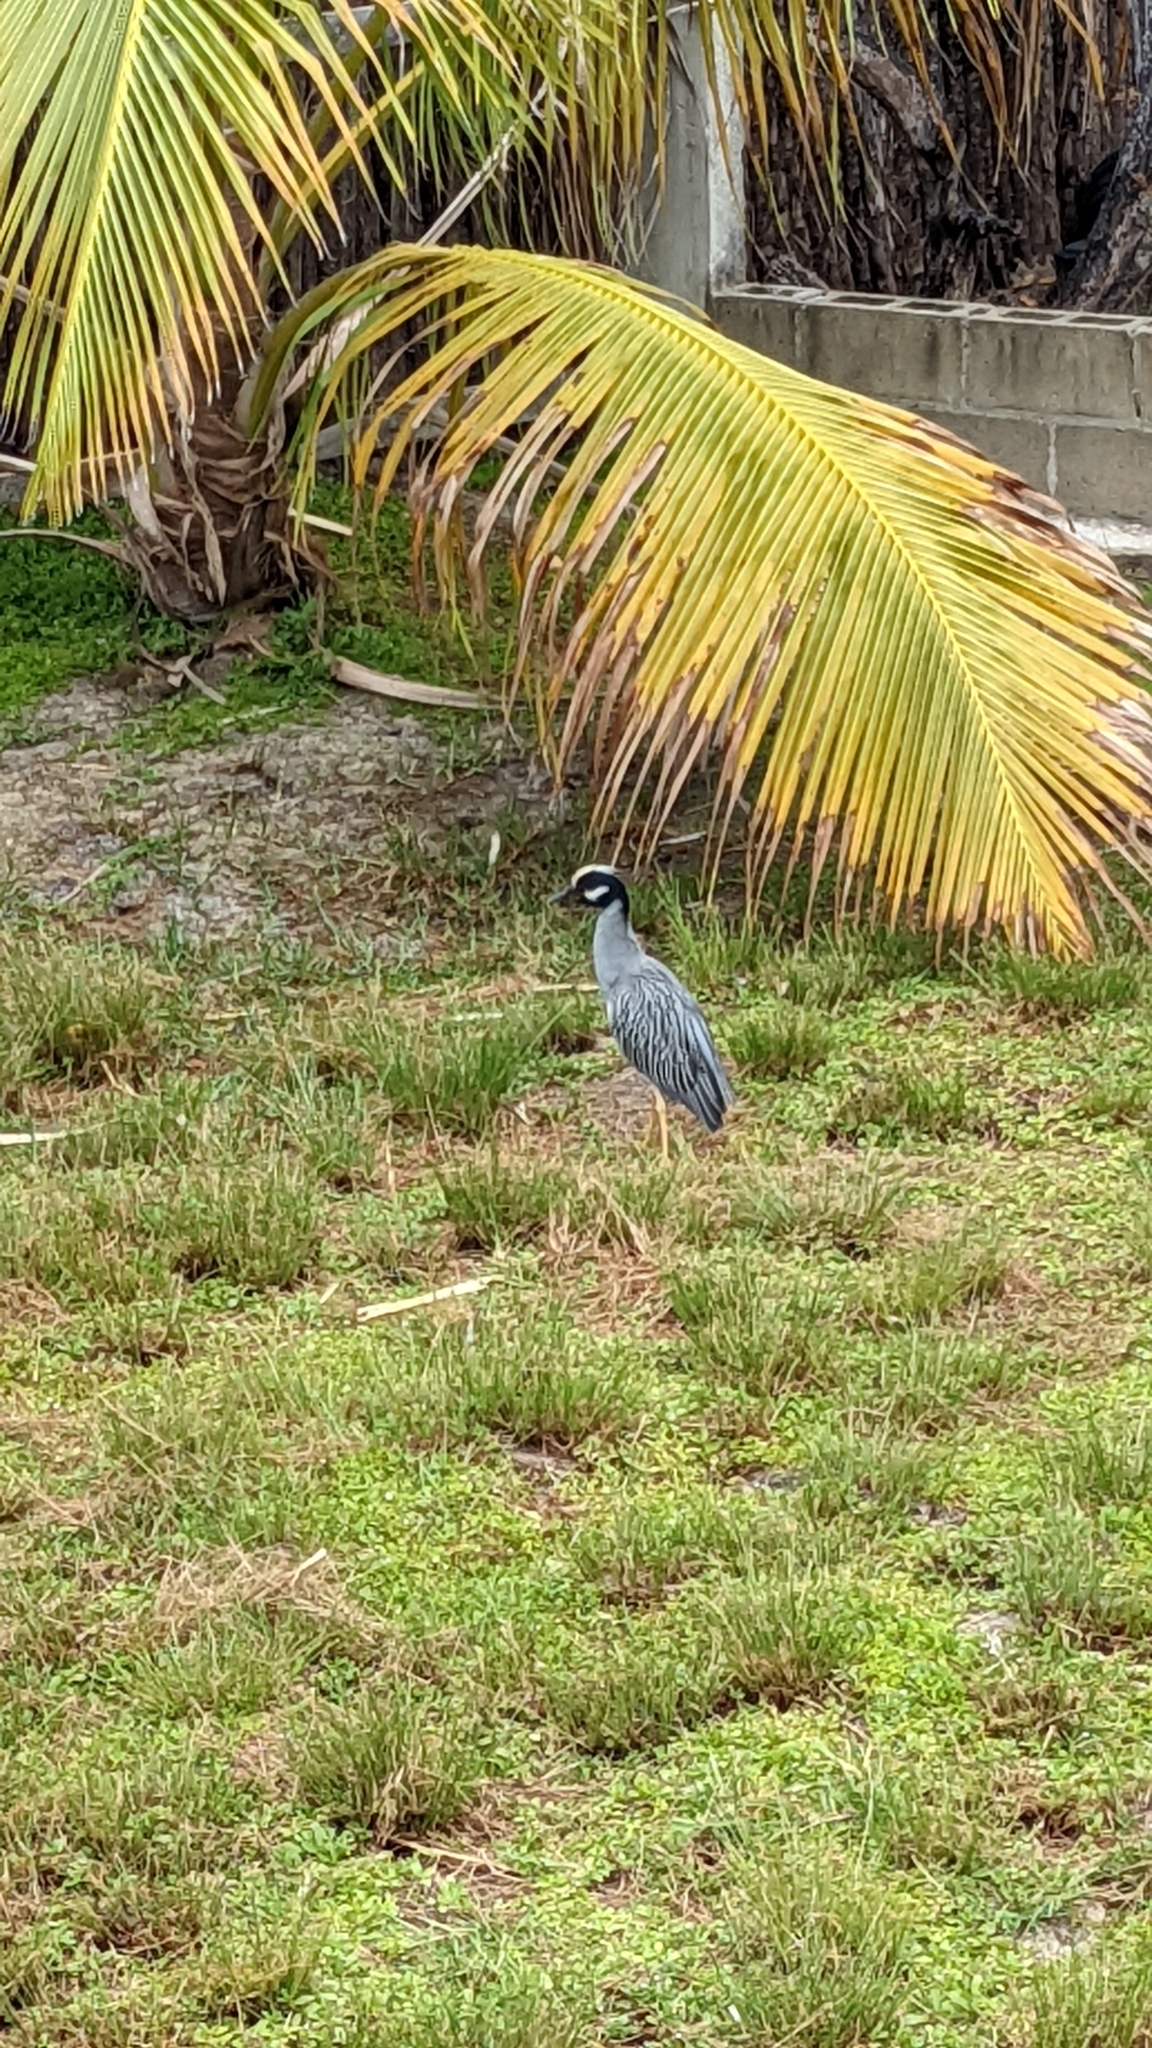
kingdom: Animalia
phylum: Chordata
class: Aves
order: Pelecaniformes
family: Ardeidae
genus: Nyctanassa
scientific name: Nyctanassa violacea
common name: Yellow-crowned night heron
